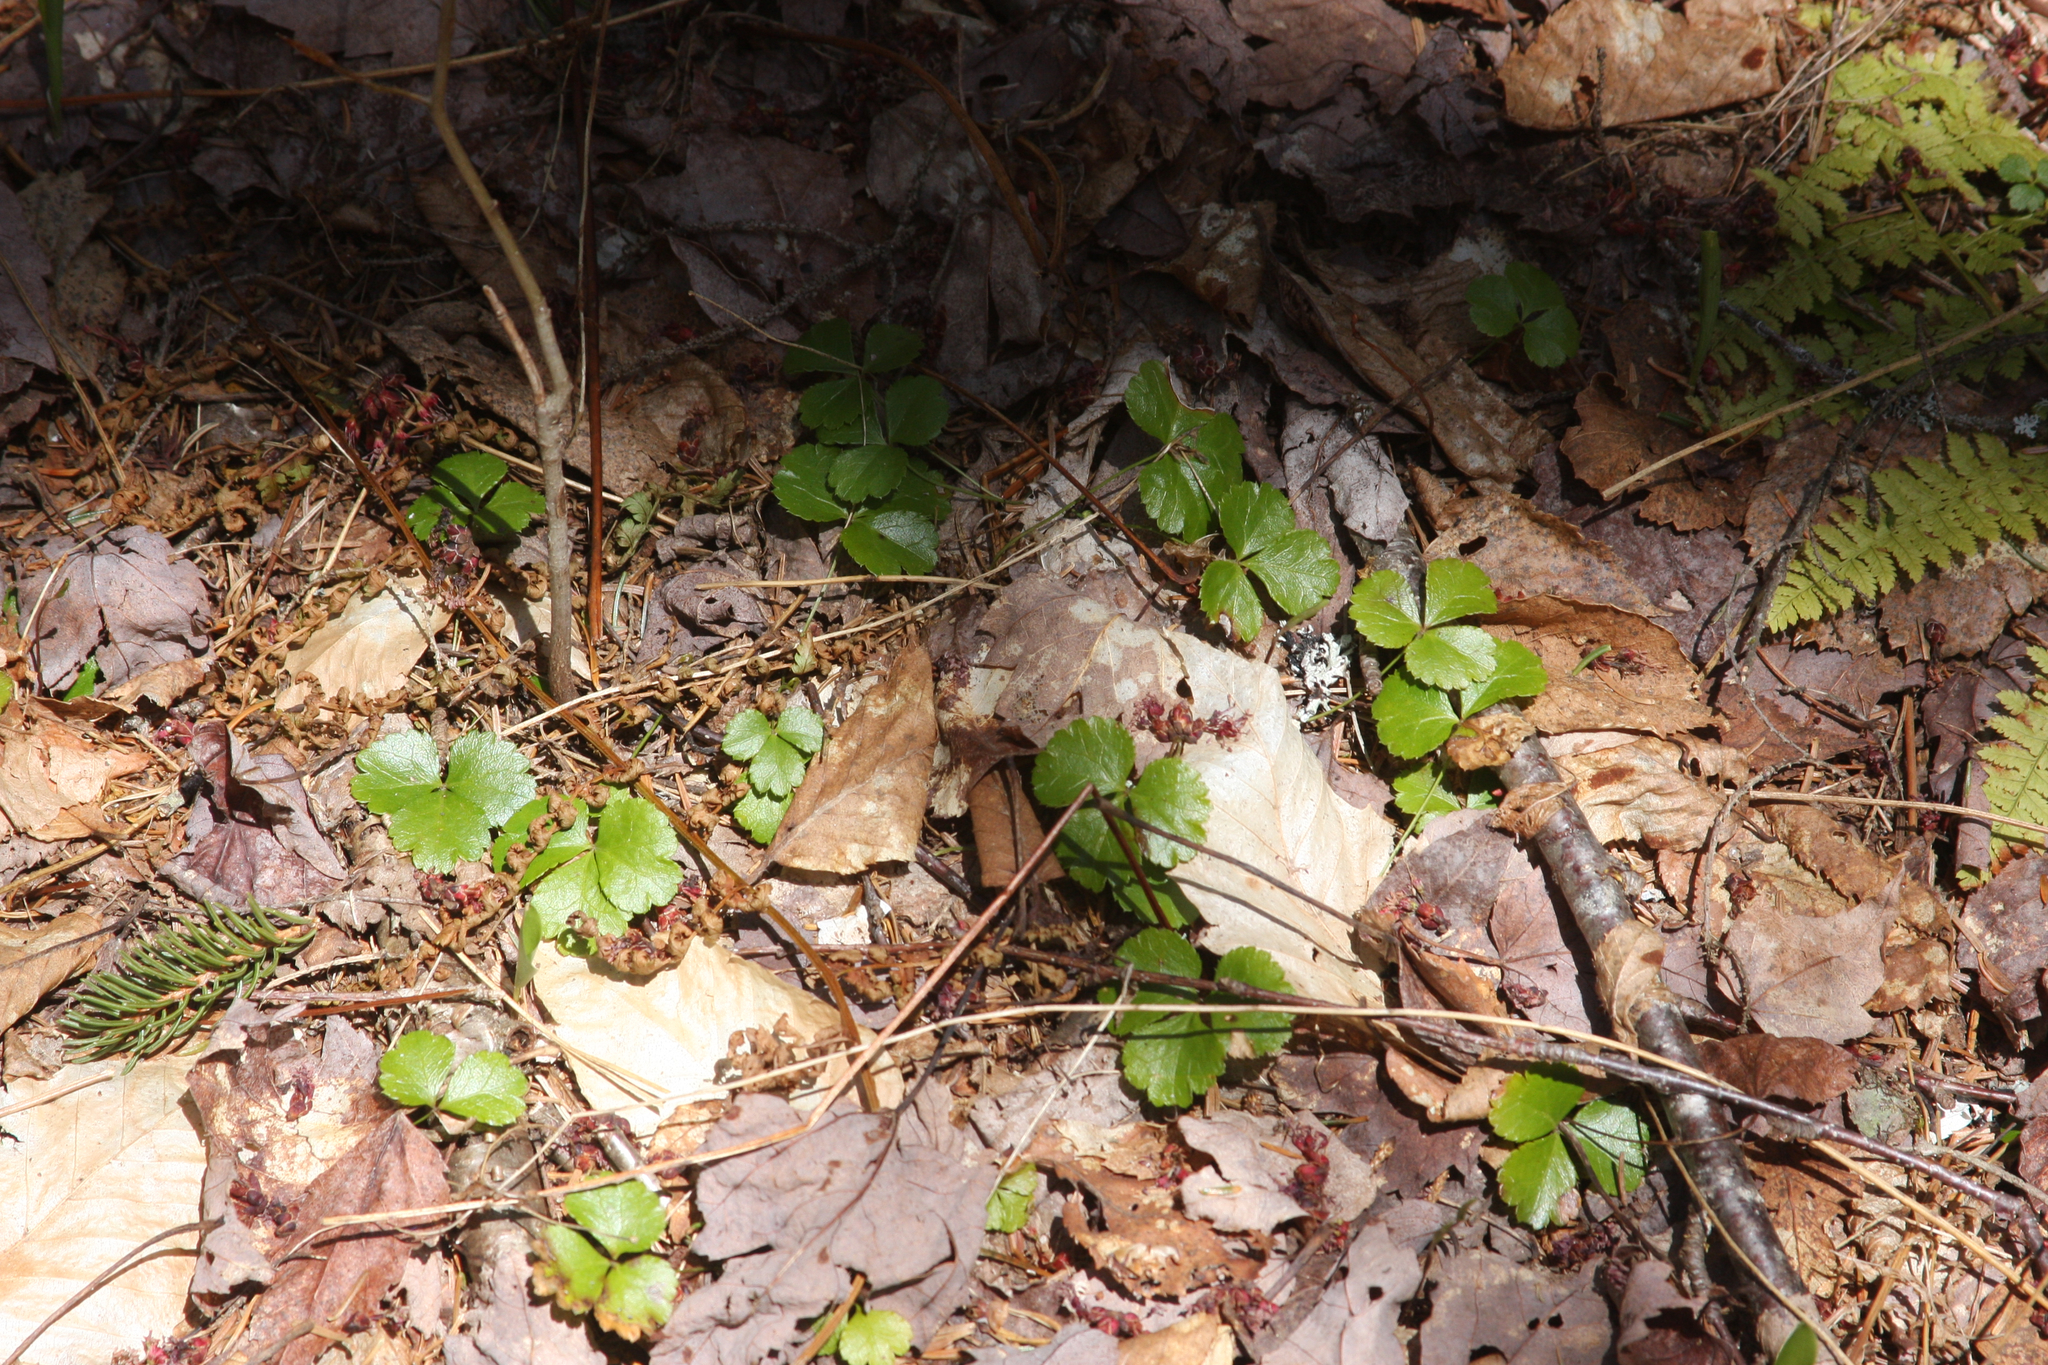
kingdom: Plantae
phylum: Tracheophyta
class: Magnoliopsida
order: Ranunculales
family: Ranunculaceae
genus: Coptis
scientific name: Coptis trifolia
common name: Canker-root
